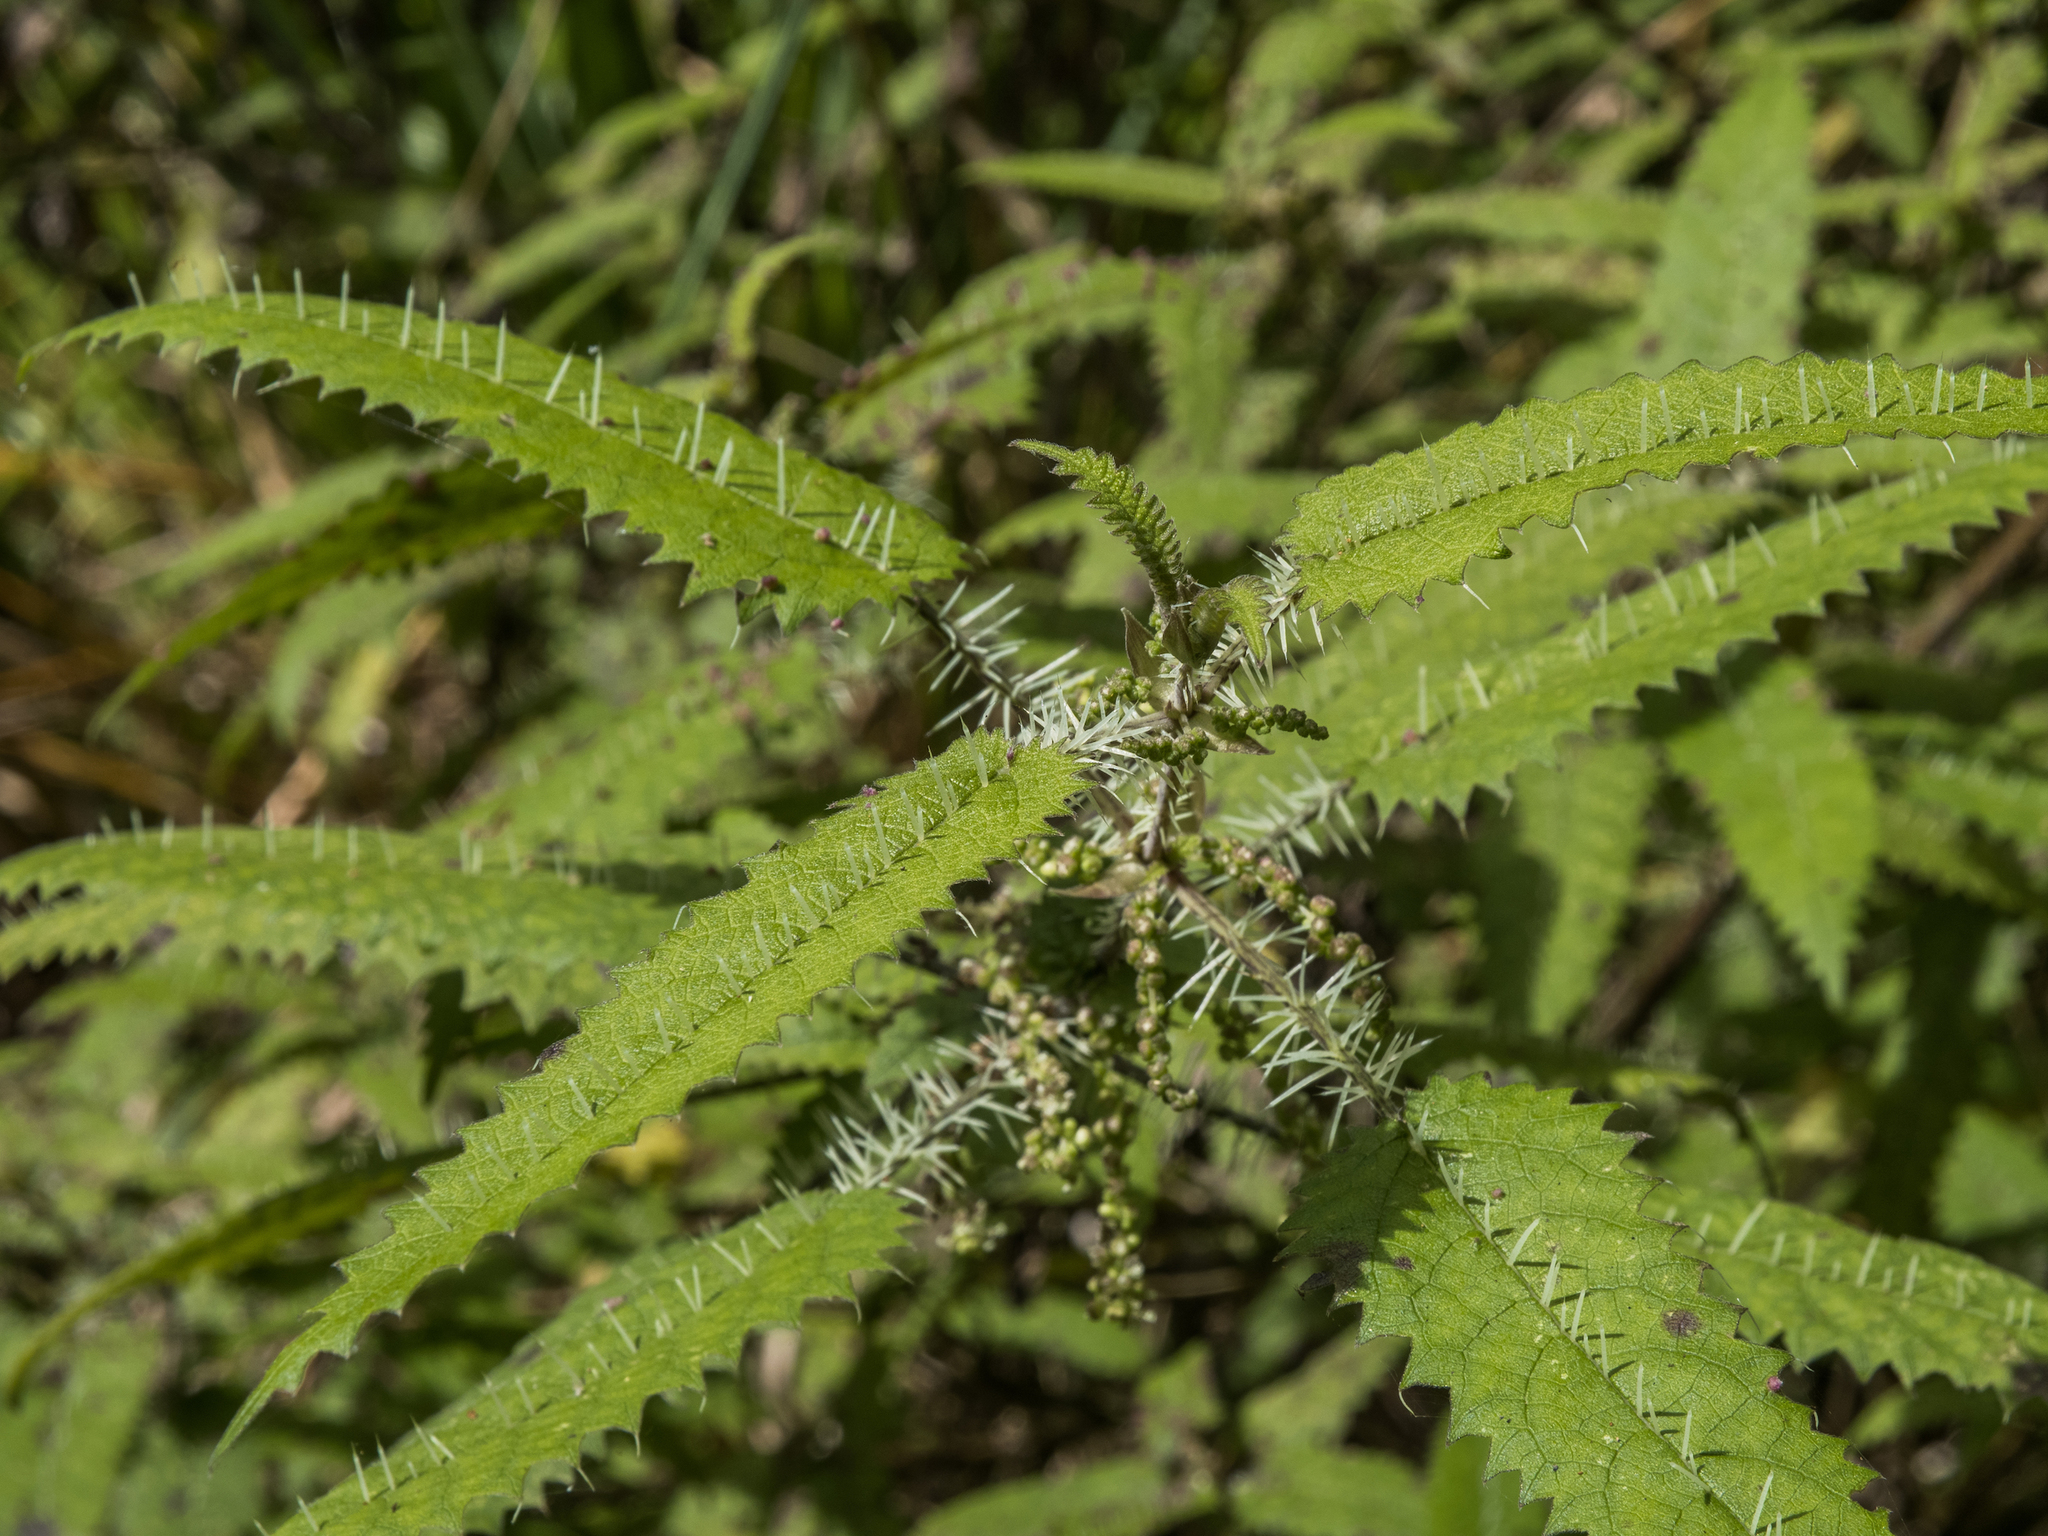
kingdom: Plantae
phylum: Tracheophyta
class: Magnoliopsida
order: Rosales
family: Urticaceae
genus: Urtica
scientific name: Urtica ferox
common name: Tree nettle
